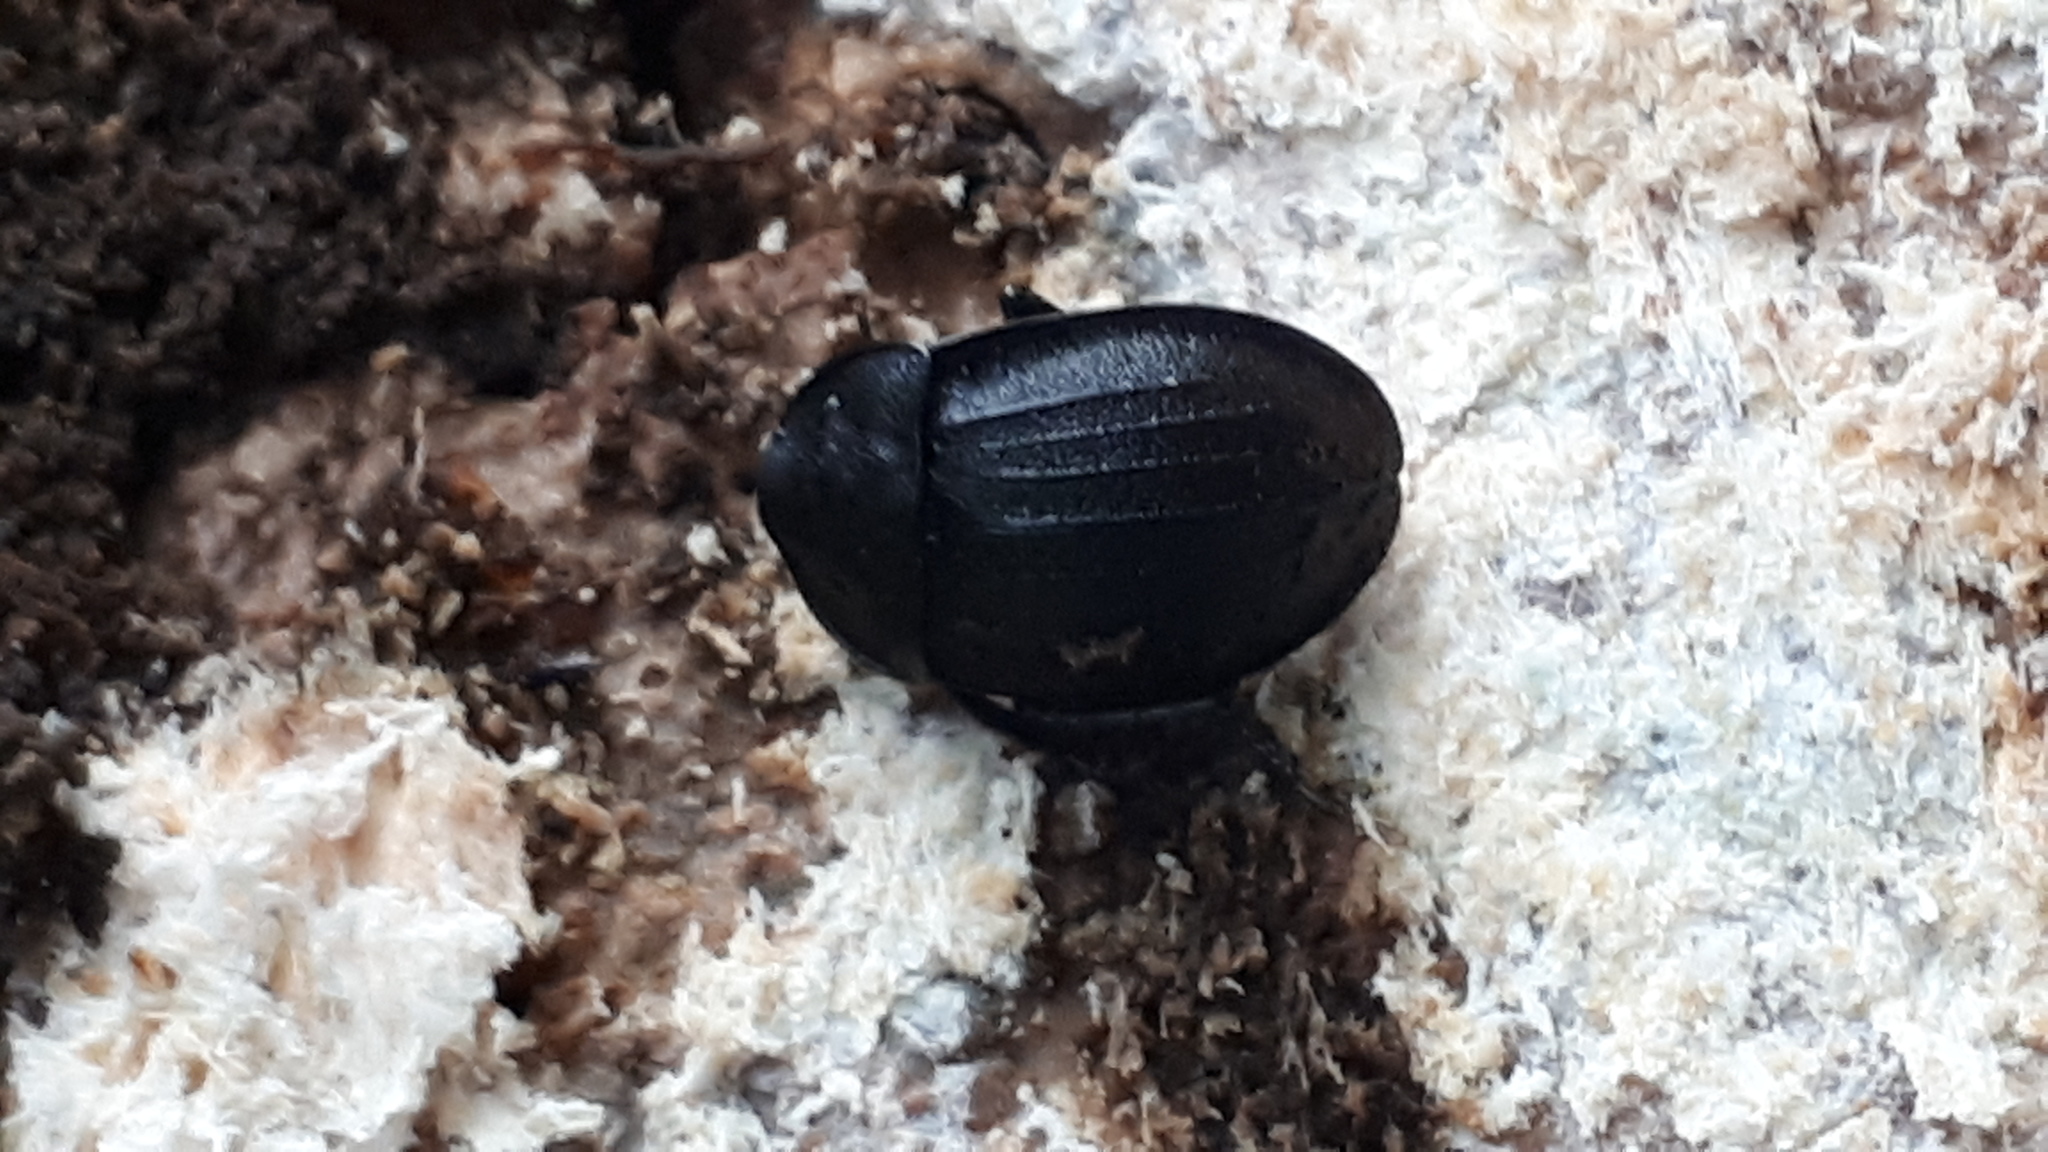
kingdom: Animalia
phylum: Arthropoda
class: Insecta
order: Coleoptera
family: Staphylinidae
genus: Silpha
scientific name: Silpha atrata
